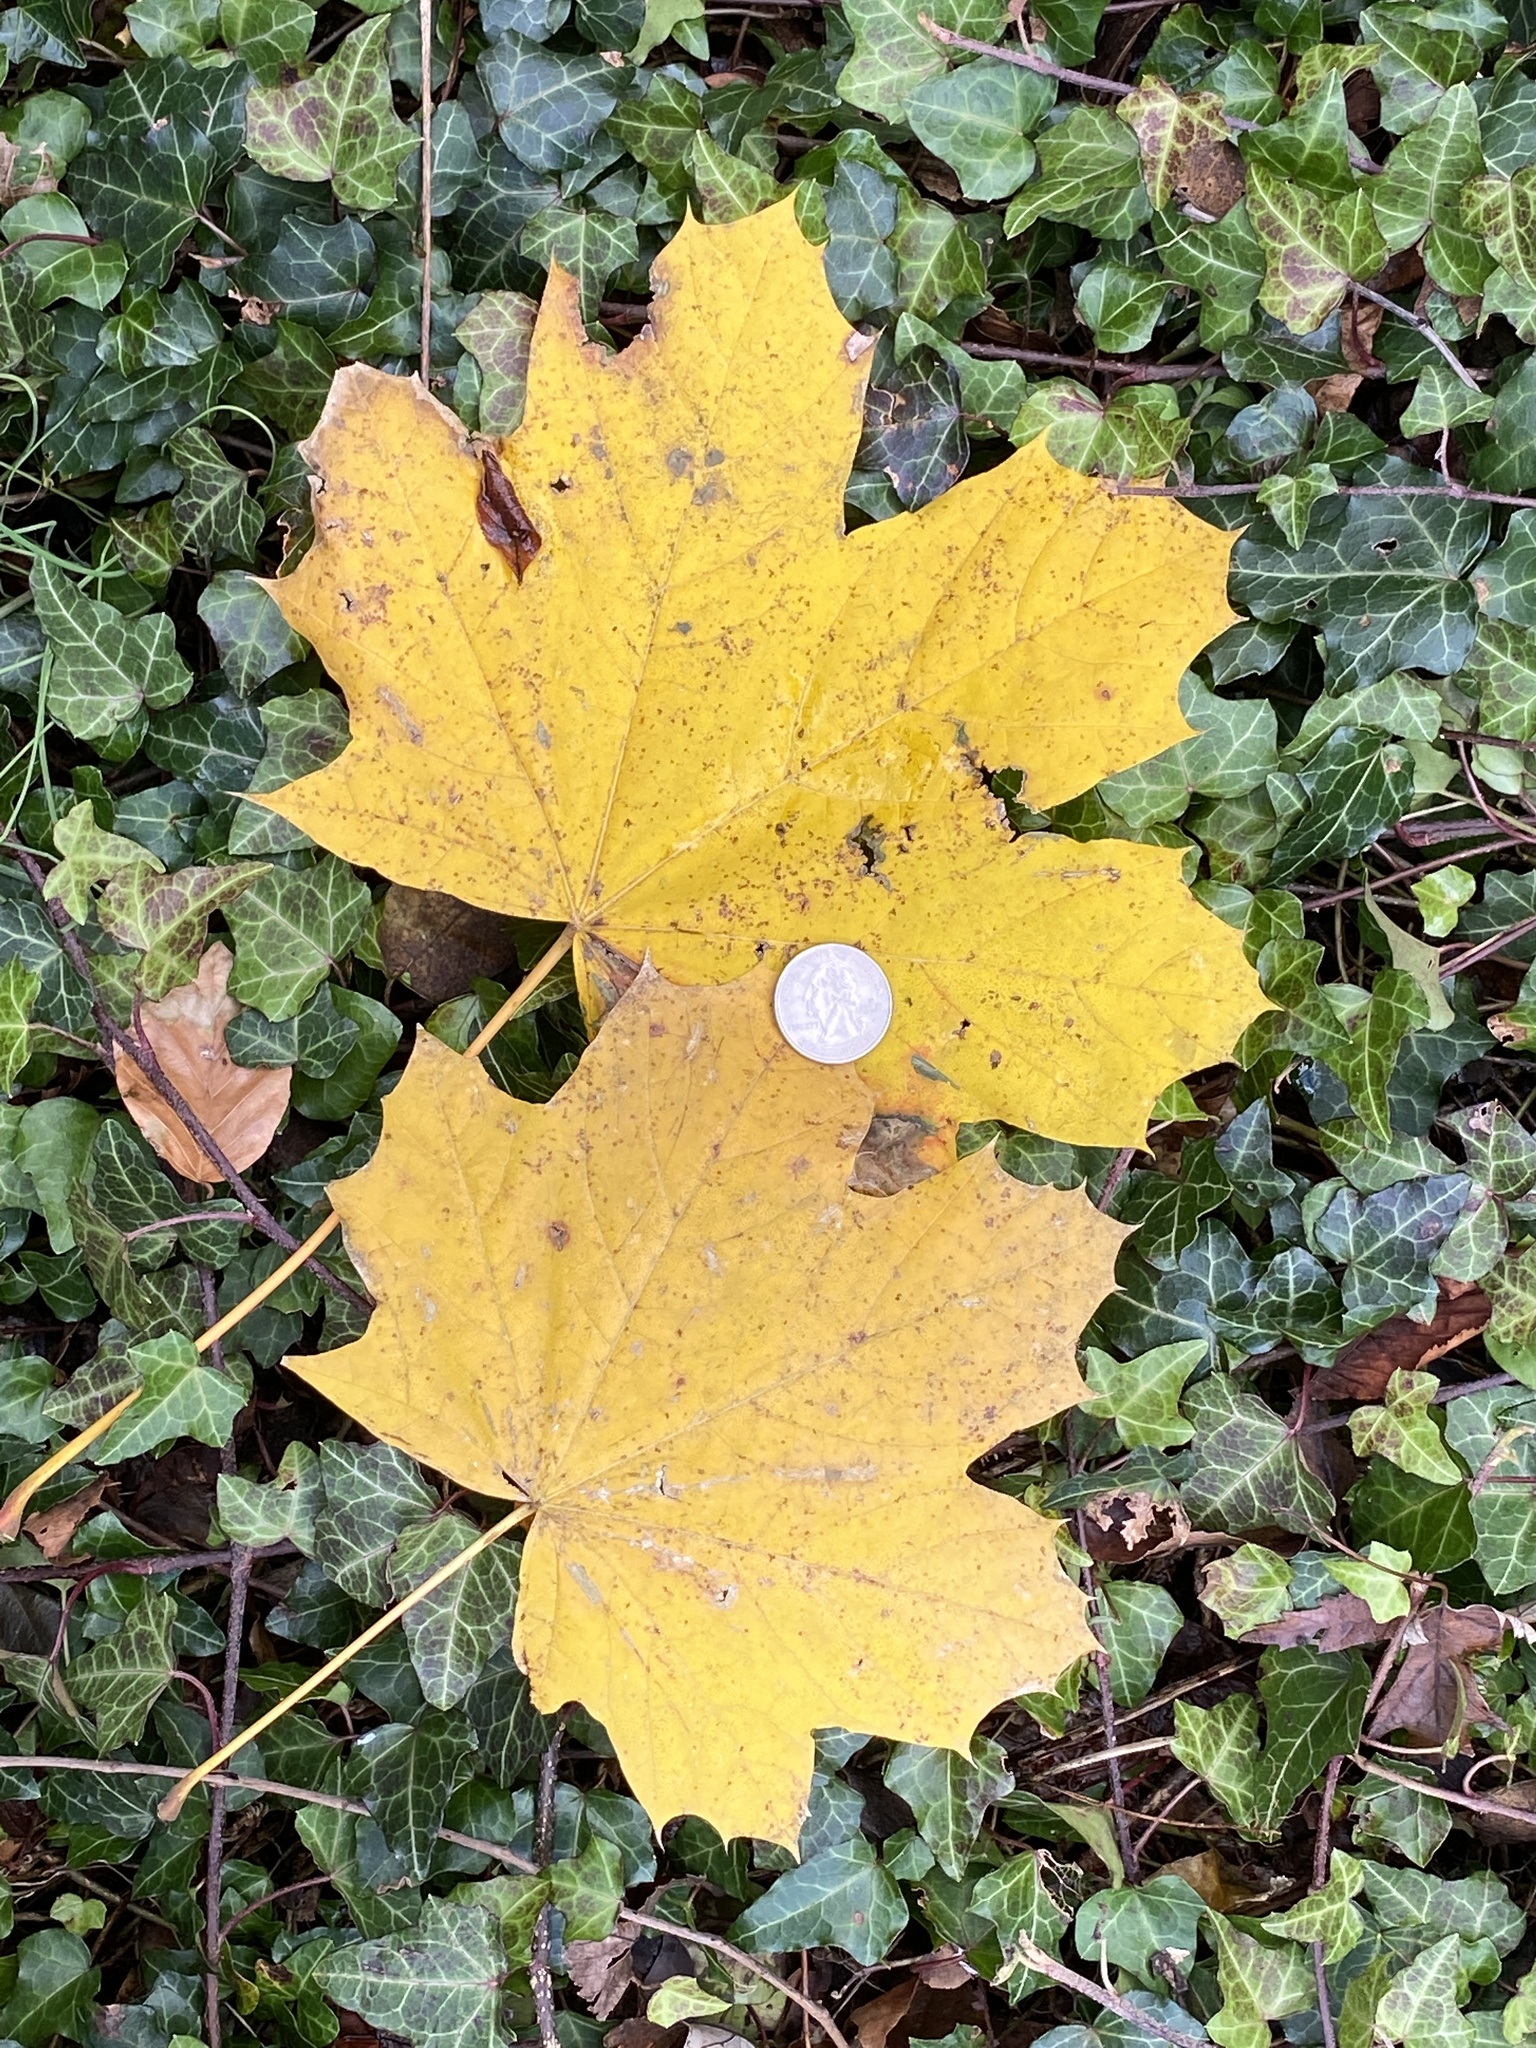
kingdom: Plantae
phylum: Tracheophyta
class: Magnoliopsida
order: Sapindales
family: Sapindaceae
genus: Acer
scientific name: Acer platanoides
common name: Norway maple
